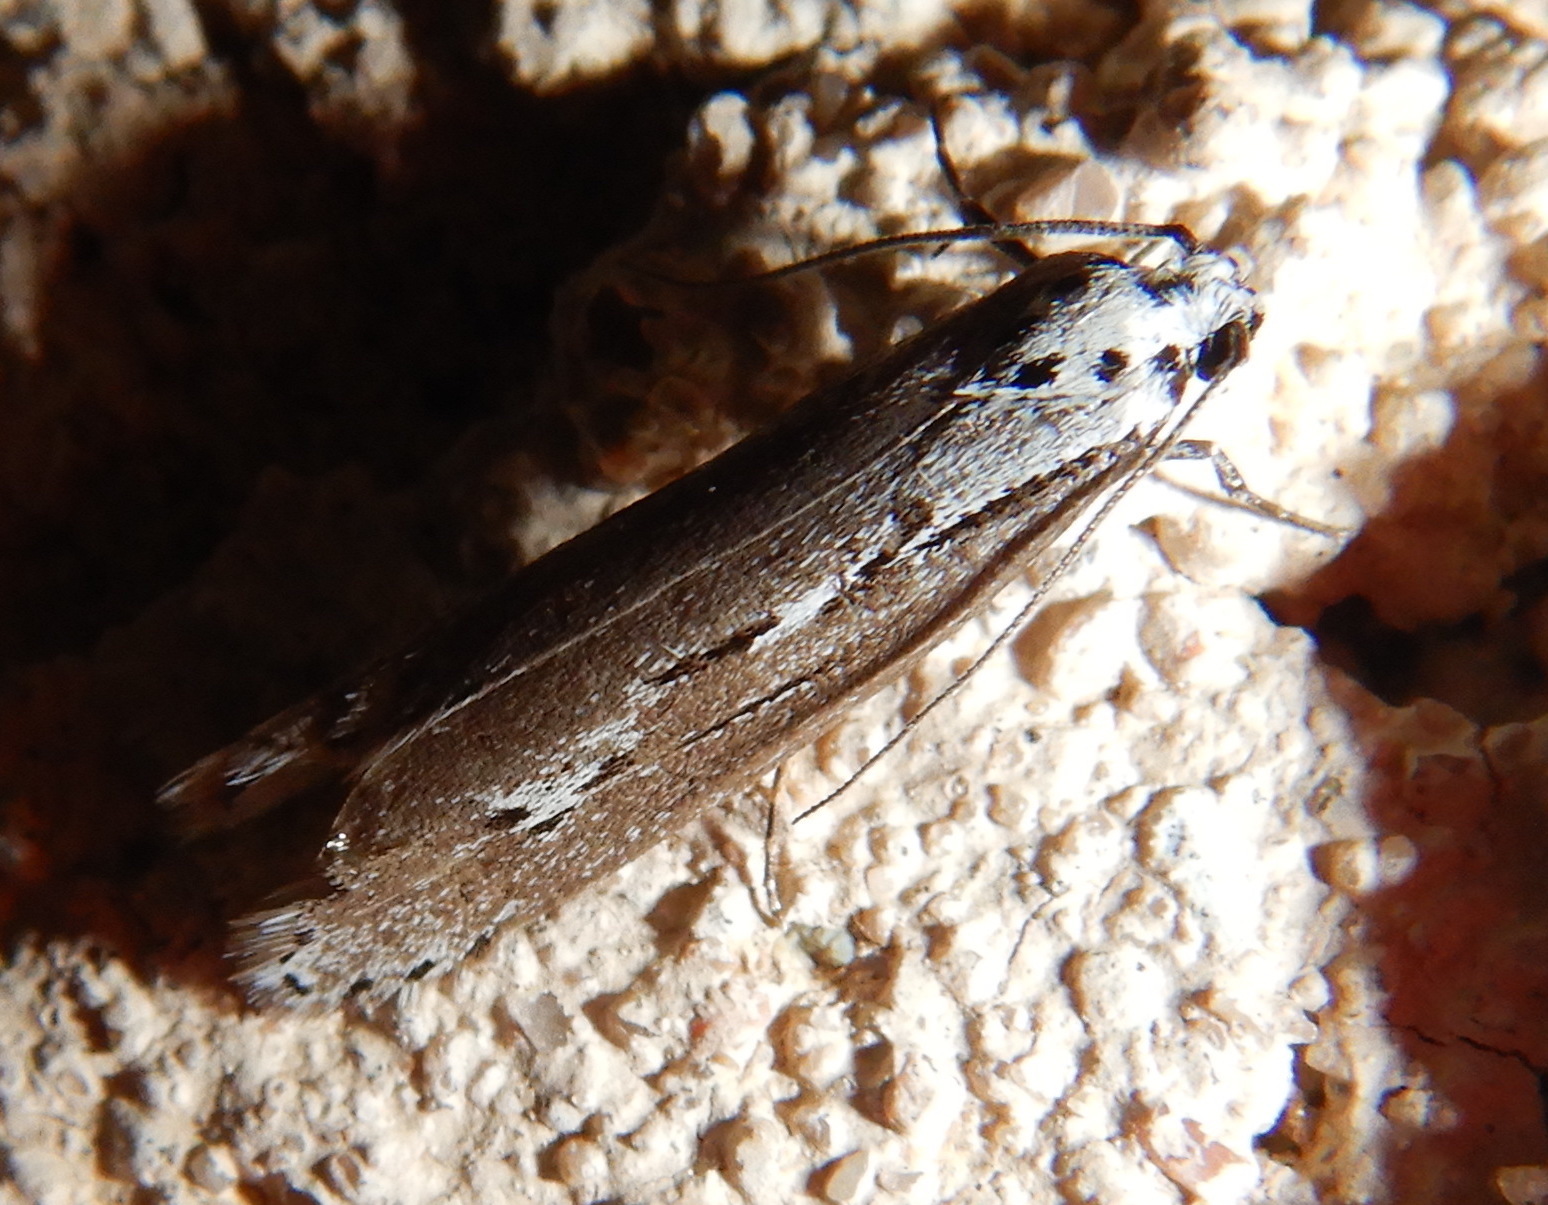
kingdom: Animalia
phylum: Arthropoda
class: Insecta
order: Lepidoptera
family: Ethmiidae
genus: Ethmia
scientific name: Ethmia discostrigella
